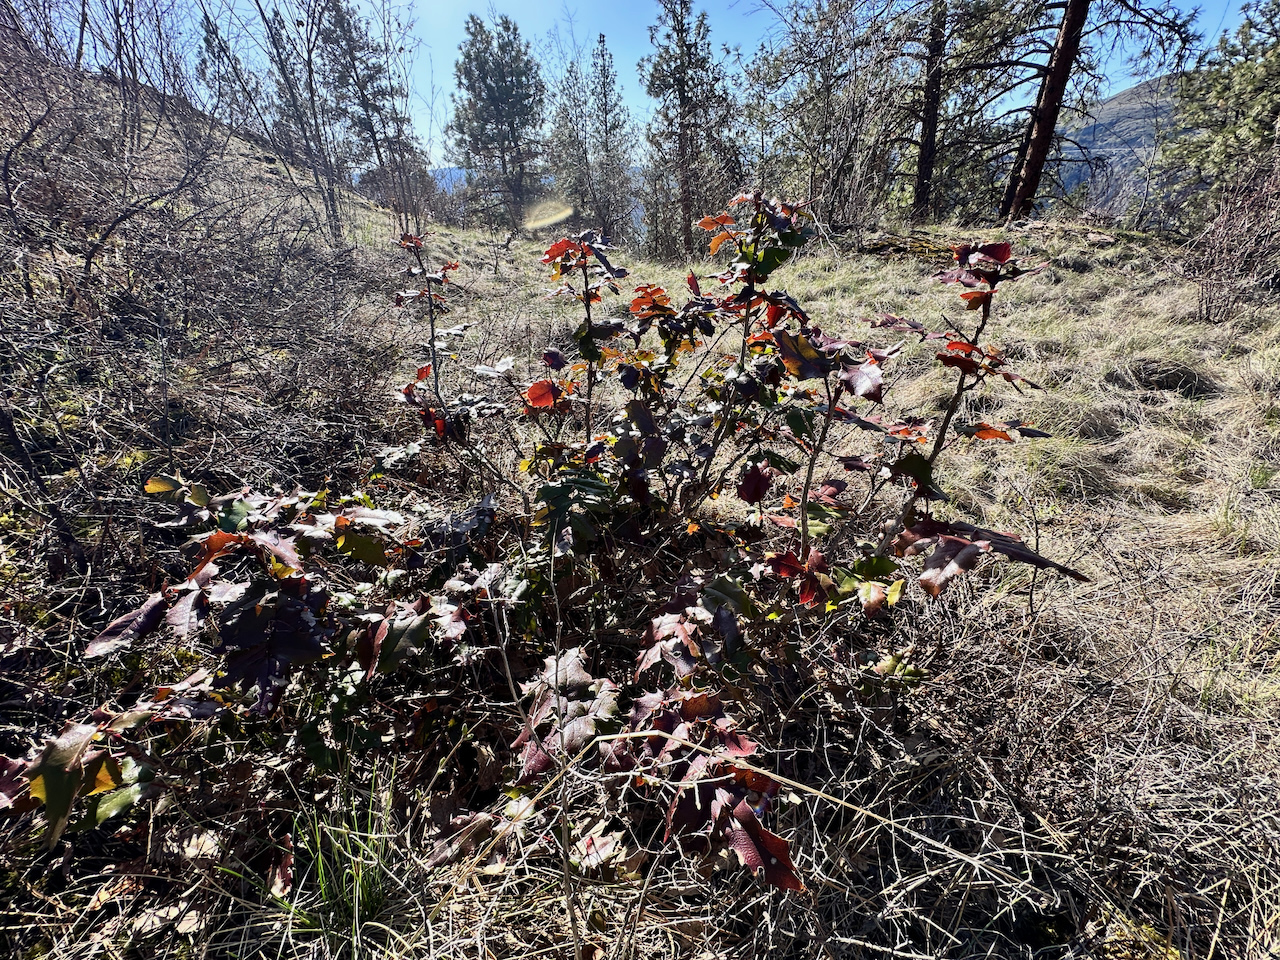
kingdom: Plantae
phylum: Tracheophyta
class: Magnoliopsida
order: Ranunculales
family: Berberidaceae
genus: Mahonia
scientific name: Mahonia aquifolium
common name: Oregon-grape
